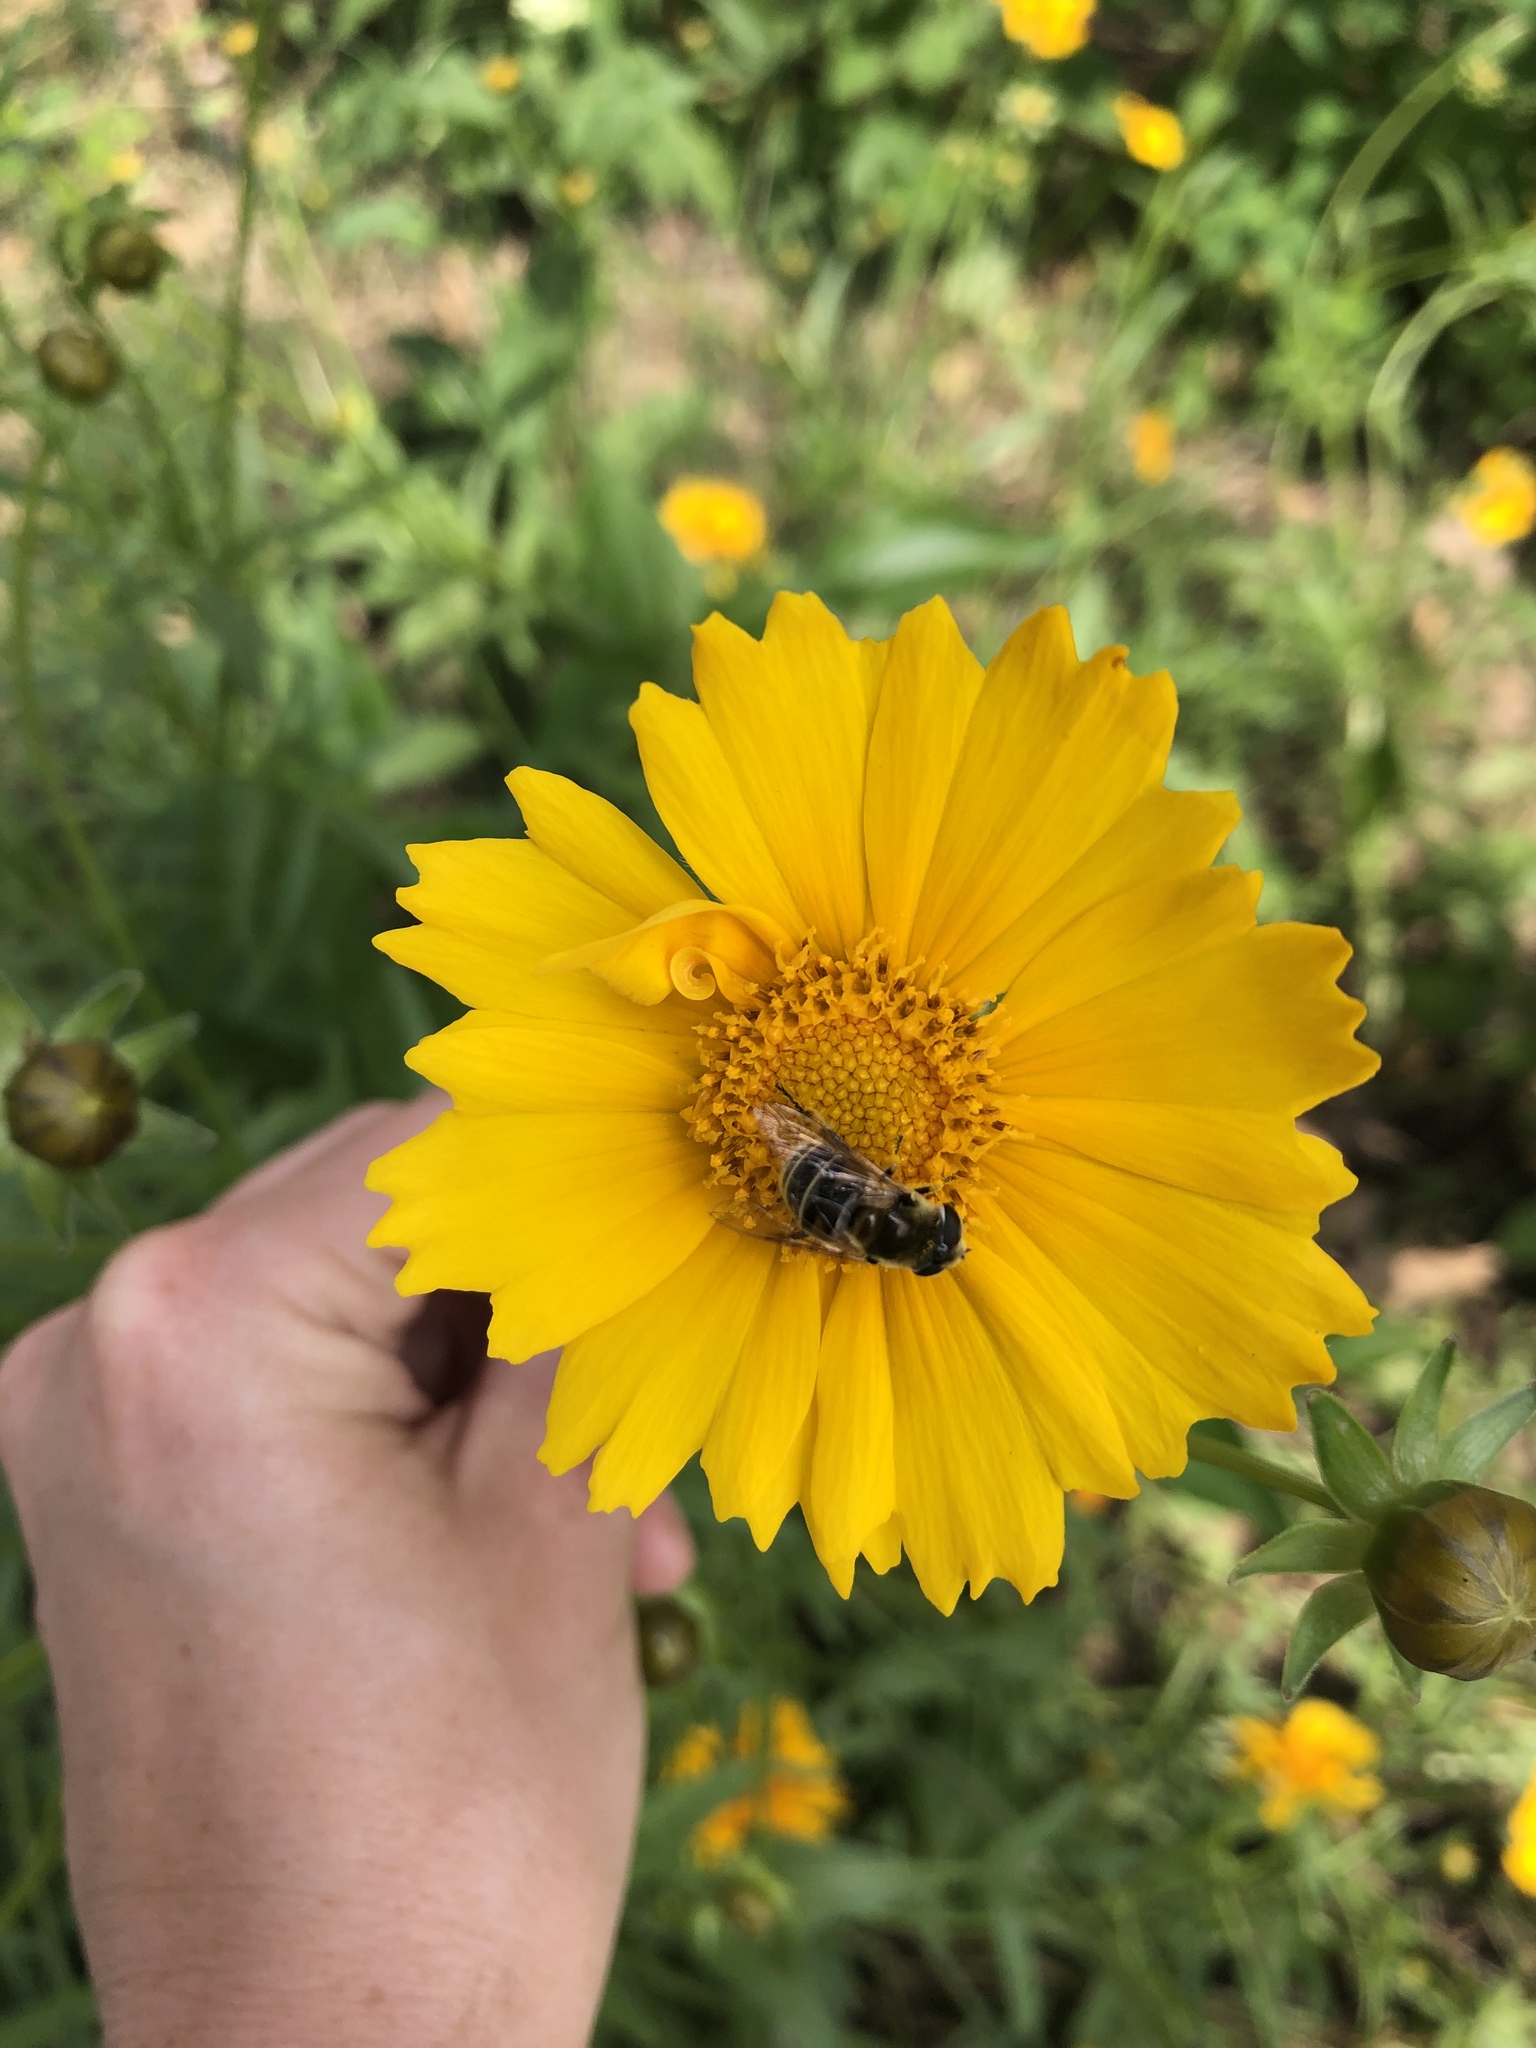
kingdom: Animalia
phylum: Arthropoda
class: Insecta
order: Diptera
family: Syrphidae
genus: Eristalis
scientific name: Eristalis stipator
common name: Yellow-shouldered drone fly
